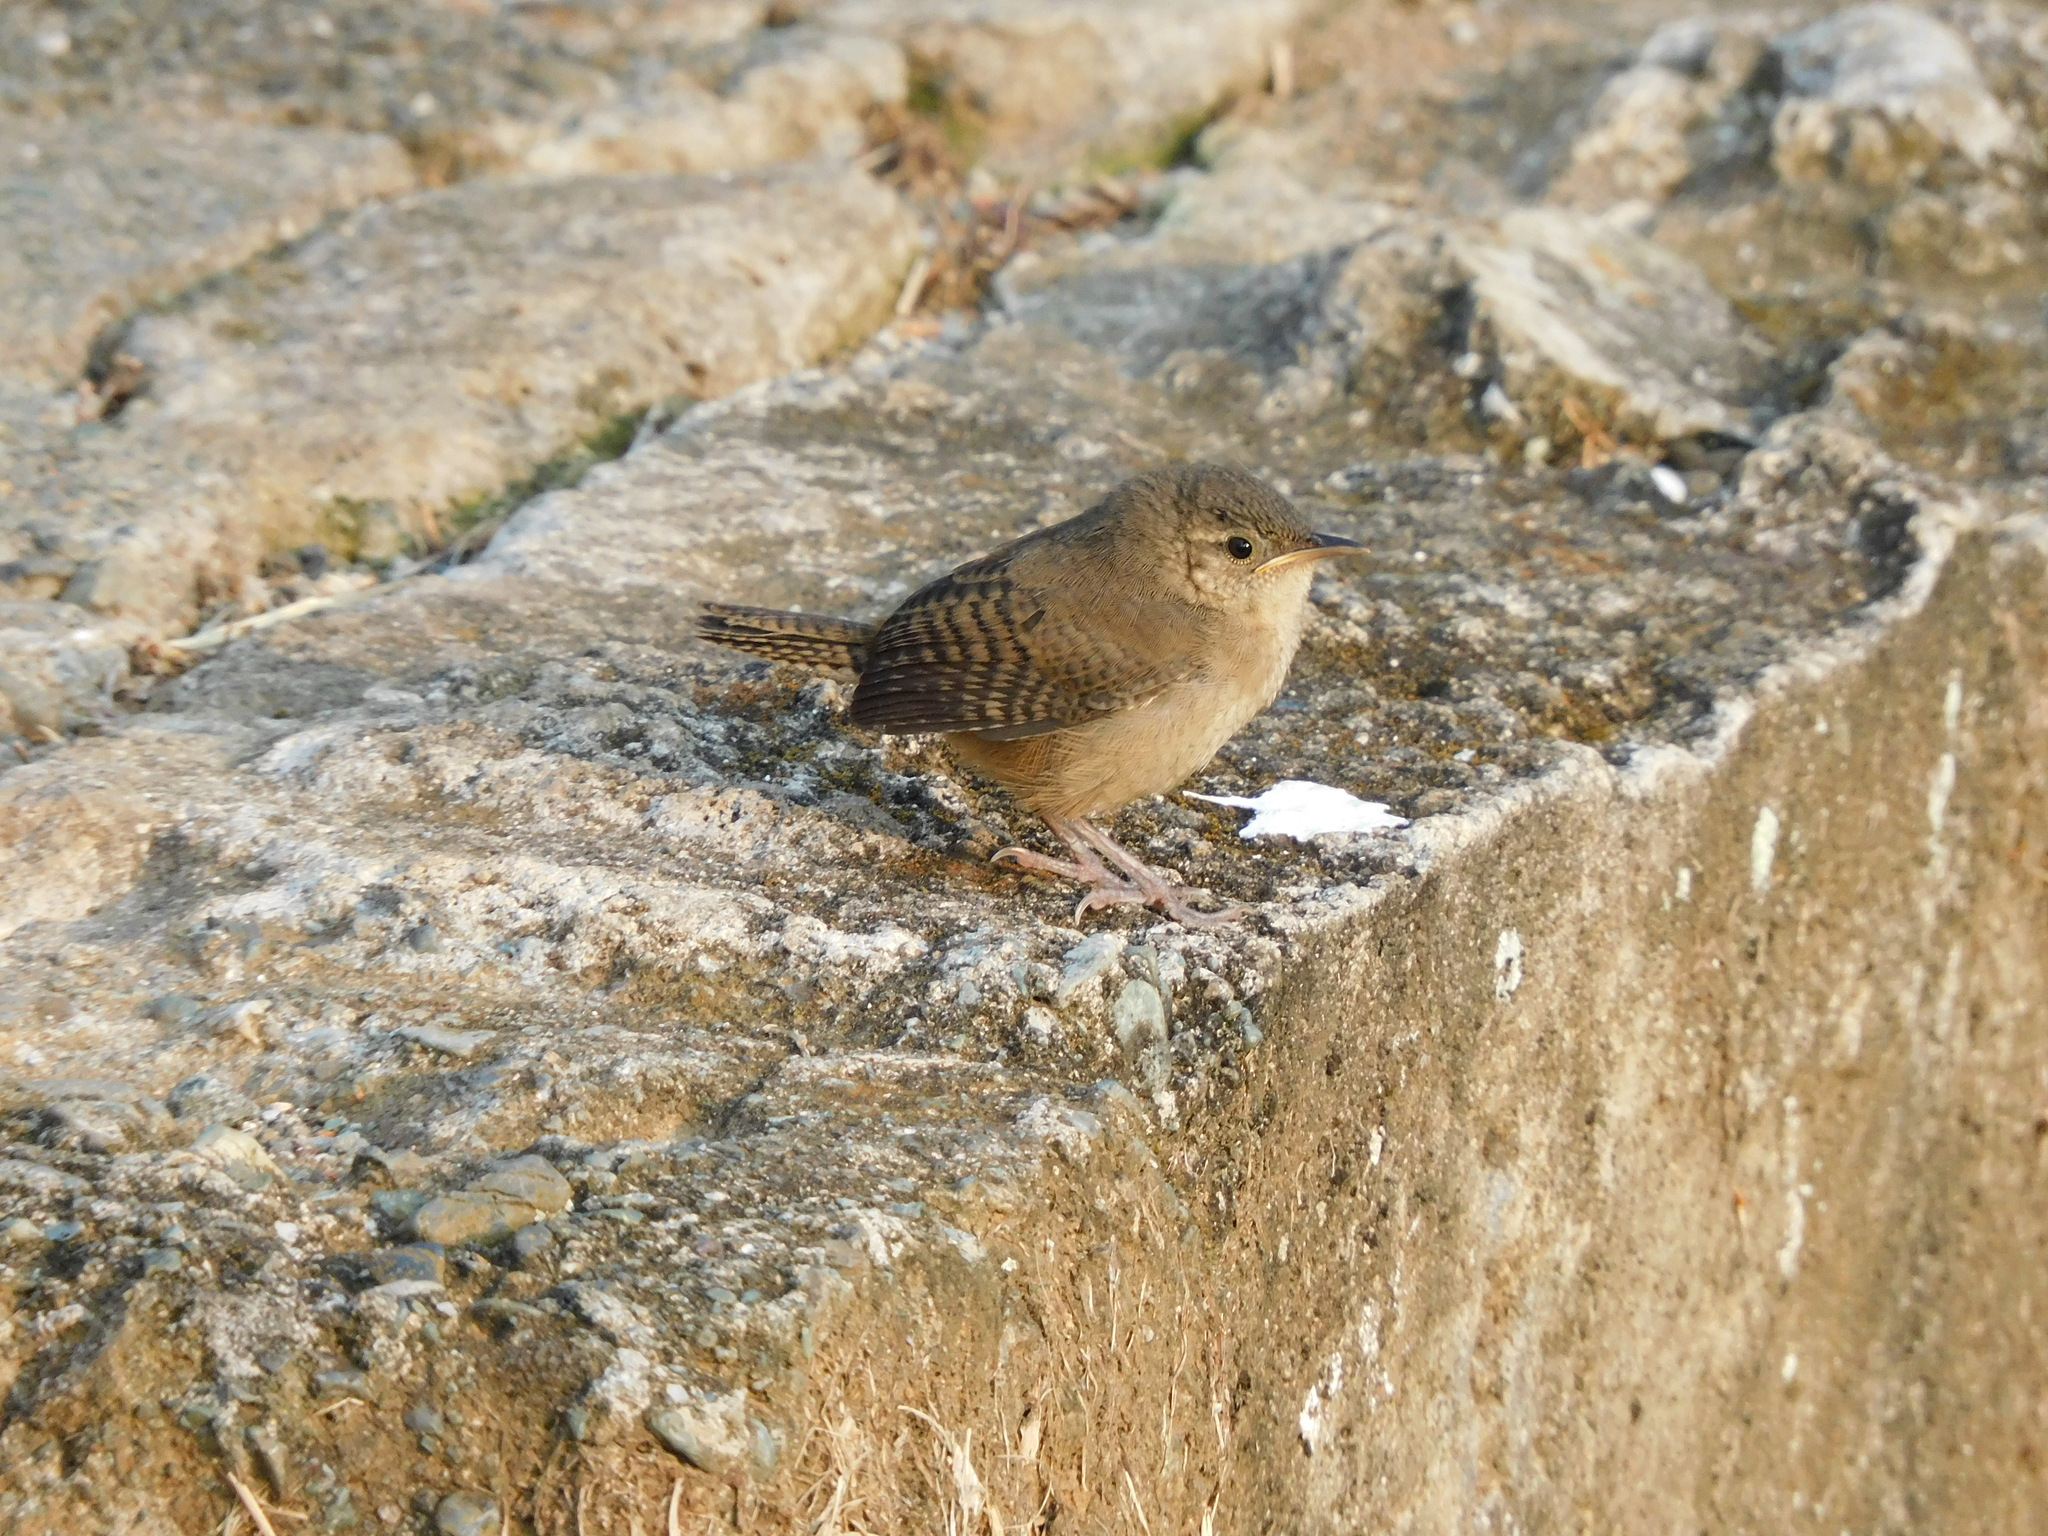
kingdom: Animalia
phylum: Chordata
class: Aves
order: Passeriformes
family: Troglodytidae
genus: Troglodytes
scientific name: Troglodytes aedon
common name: House wren
